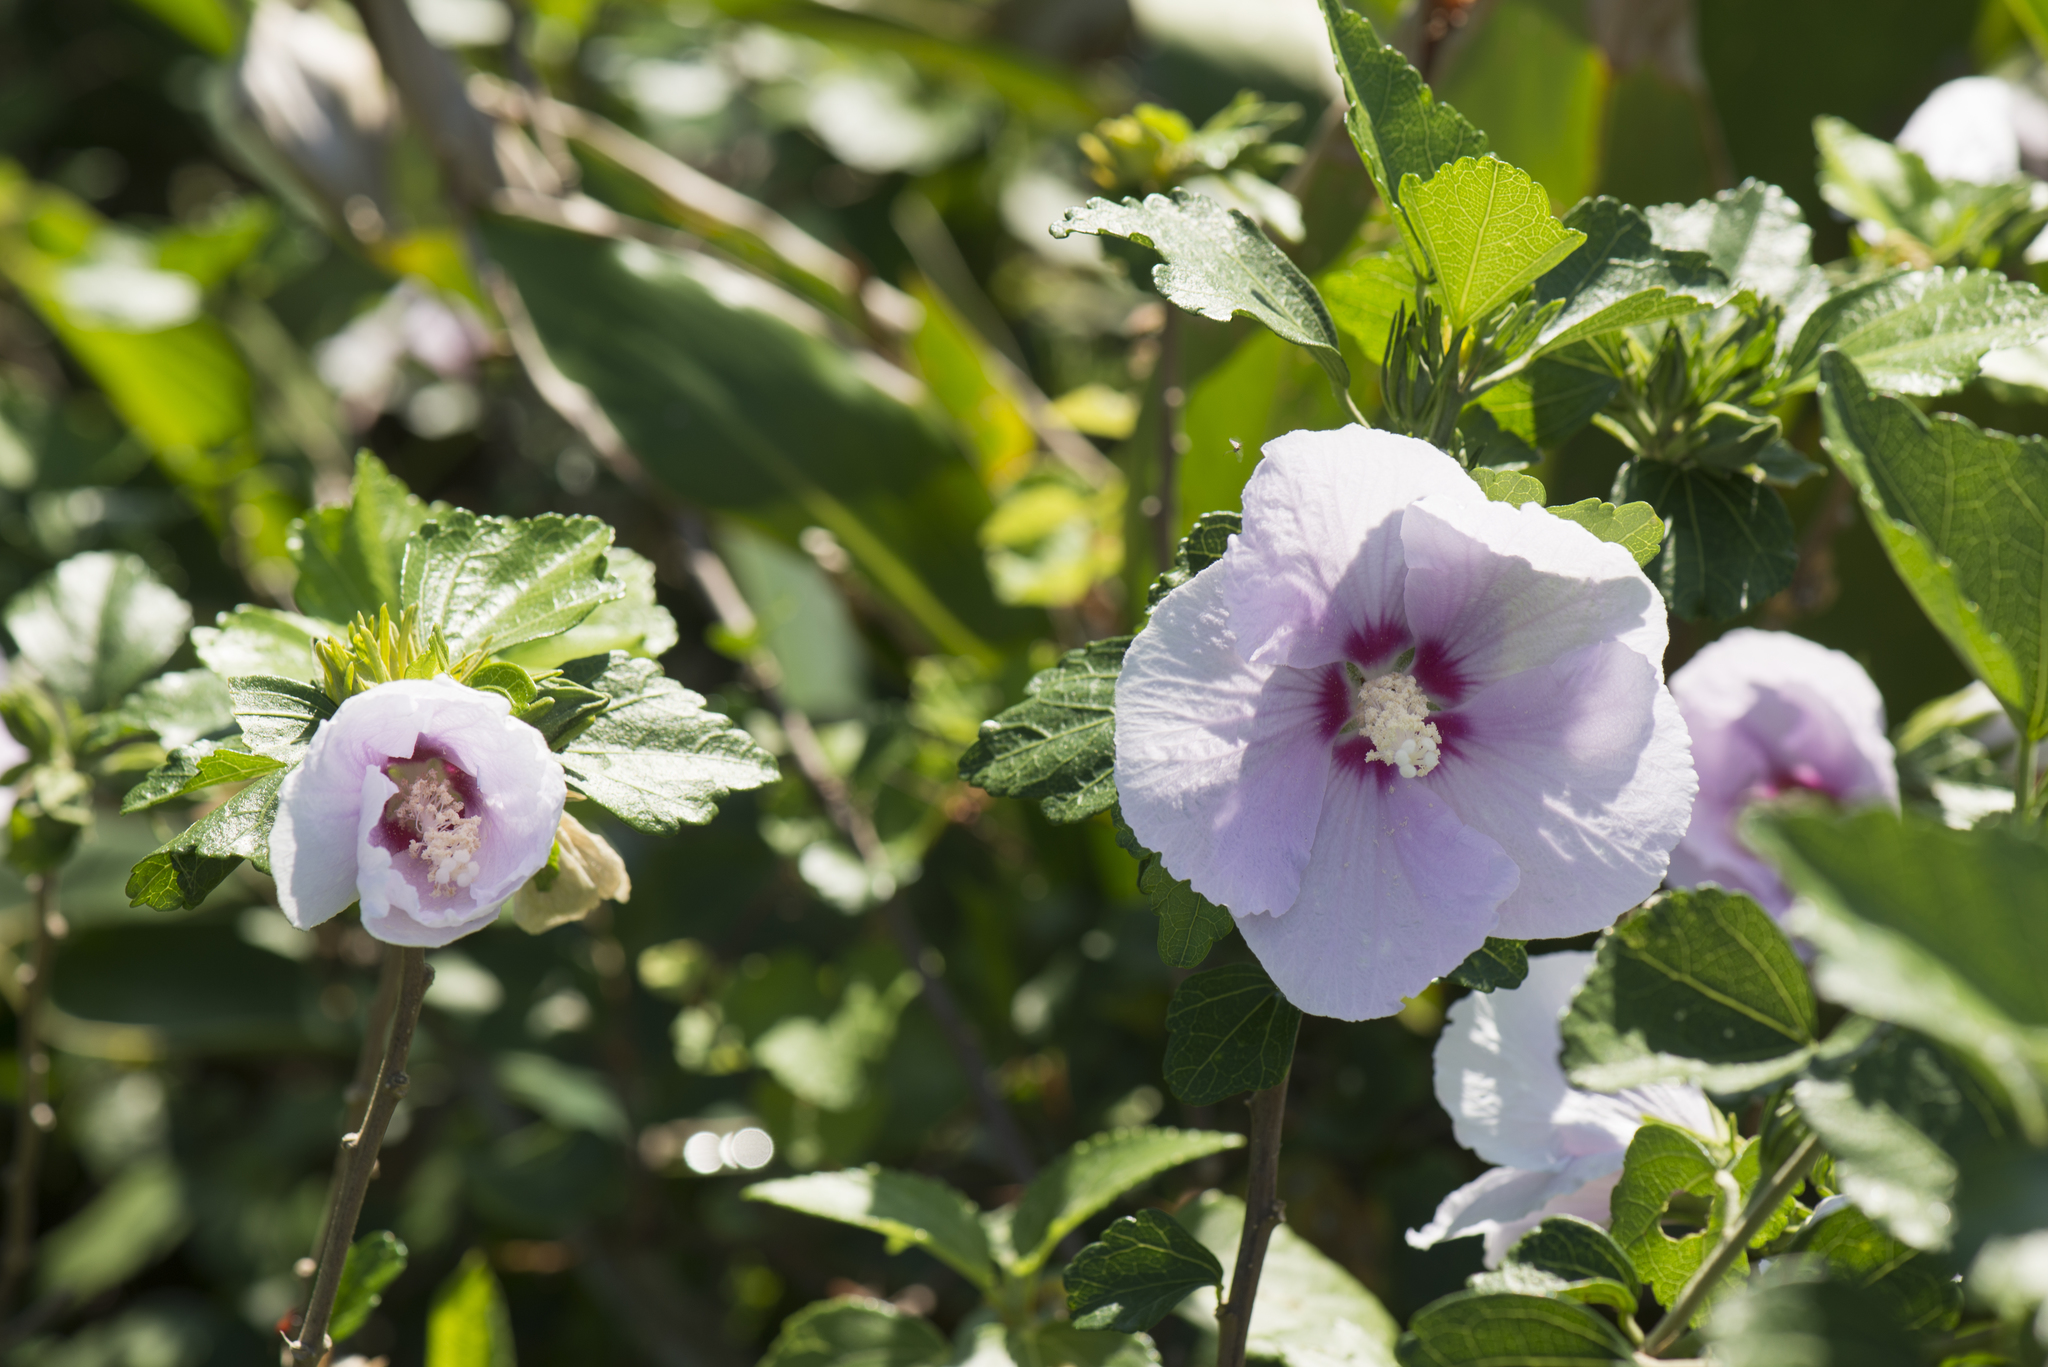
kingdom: Plantae
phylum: Tracheophyta
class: Magnoliopsida
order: Malvales
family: Malvaceae
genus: Hibiscus
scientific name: Hibiscus syriacus
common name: Syrian ketmia
